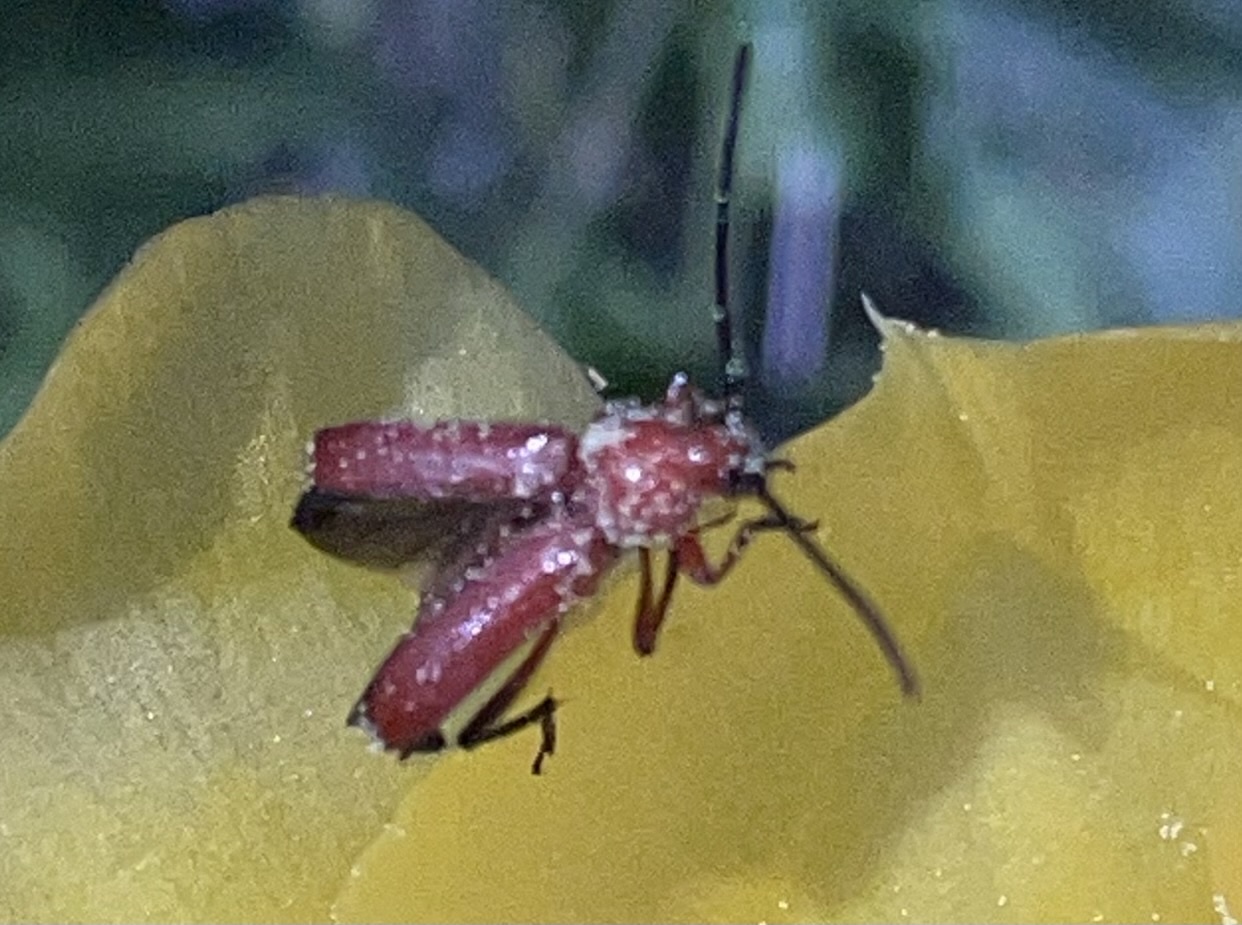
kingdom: Animalia
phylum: Arthropoda
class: Insecta
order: Coleoptera
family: Cerambycidae
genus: Batyle
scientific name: Batyle suturalis
